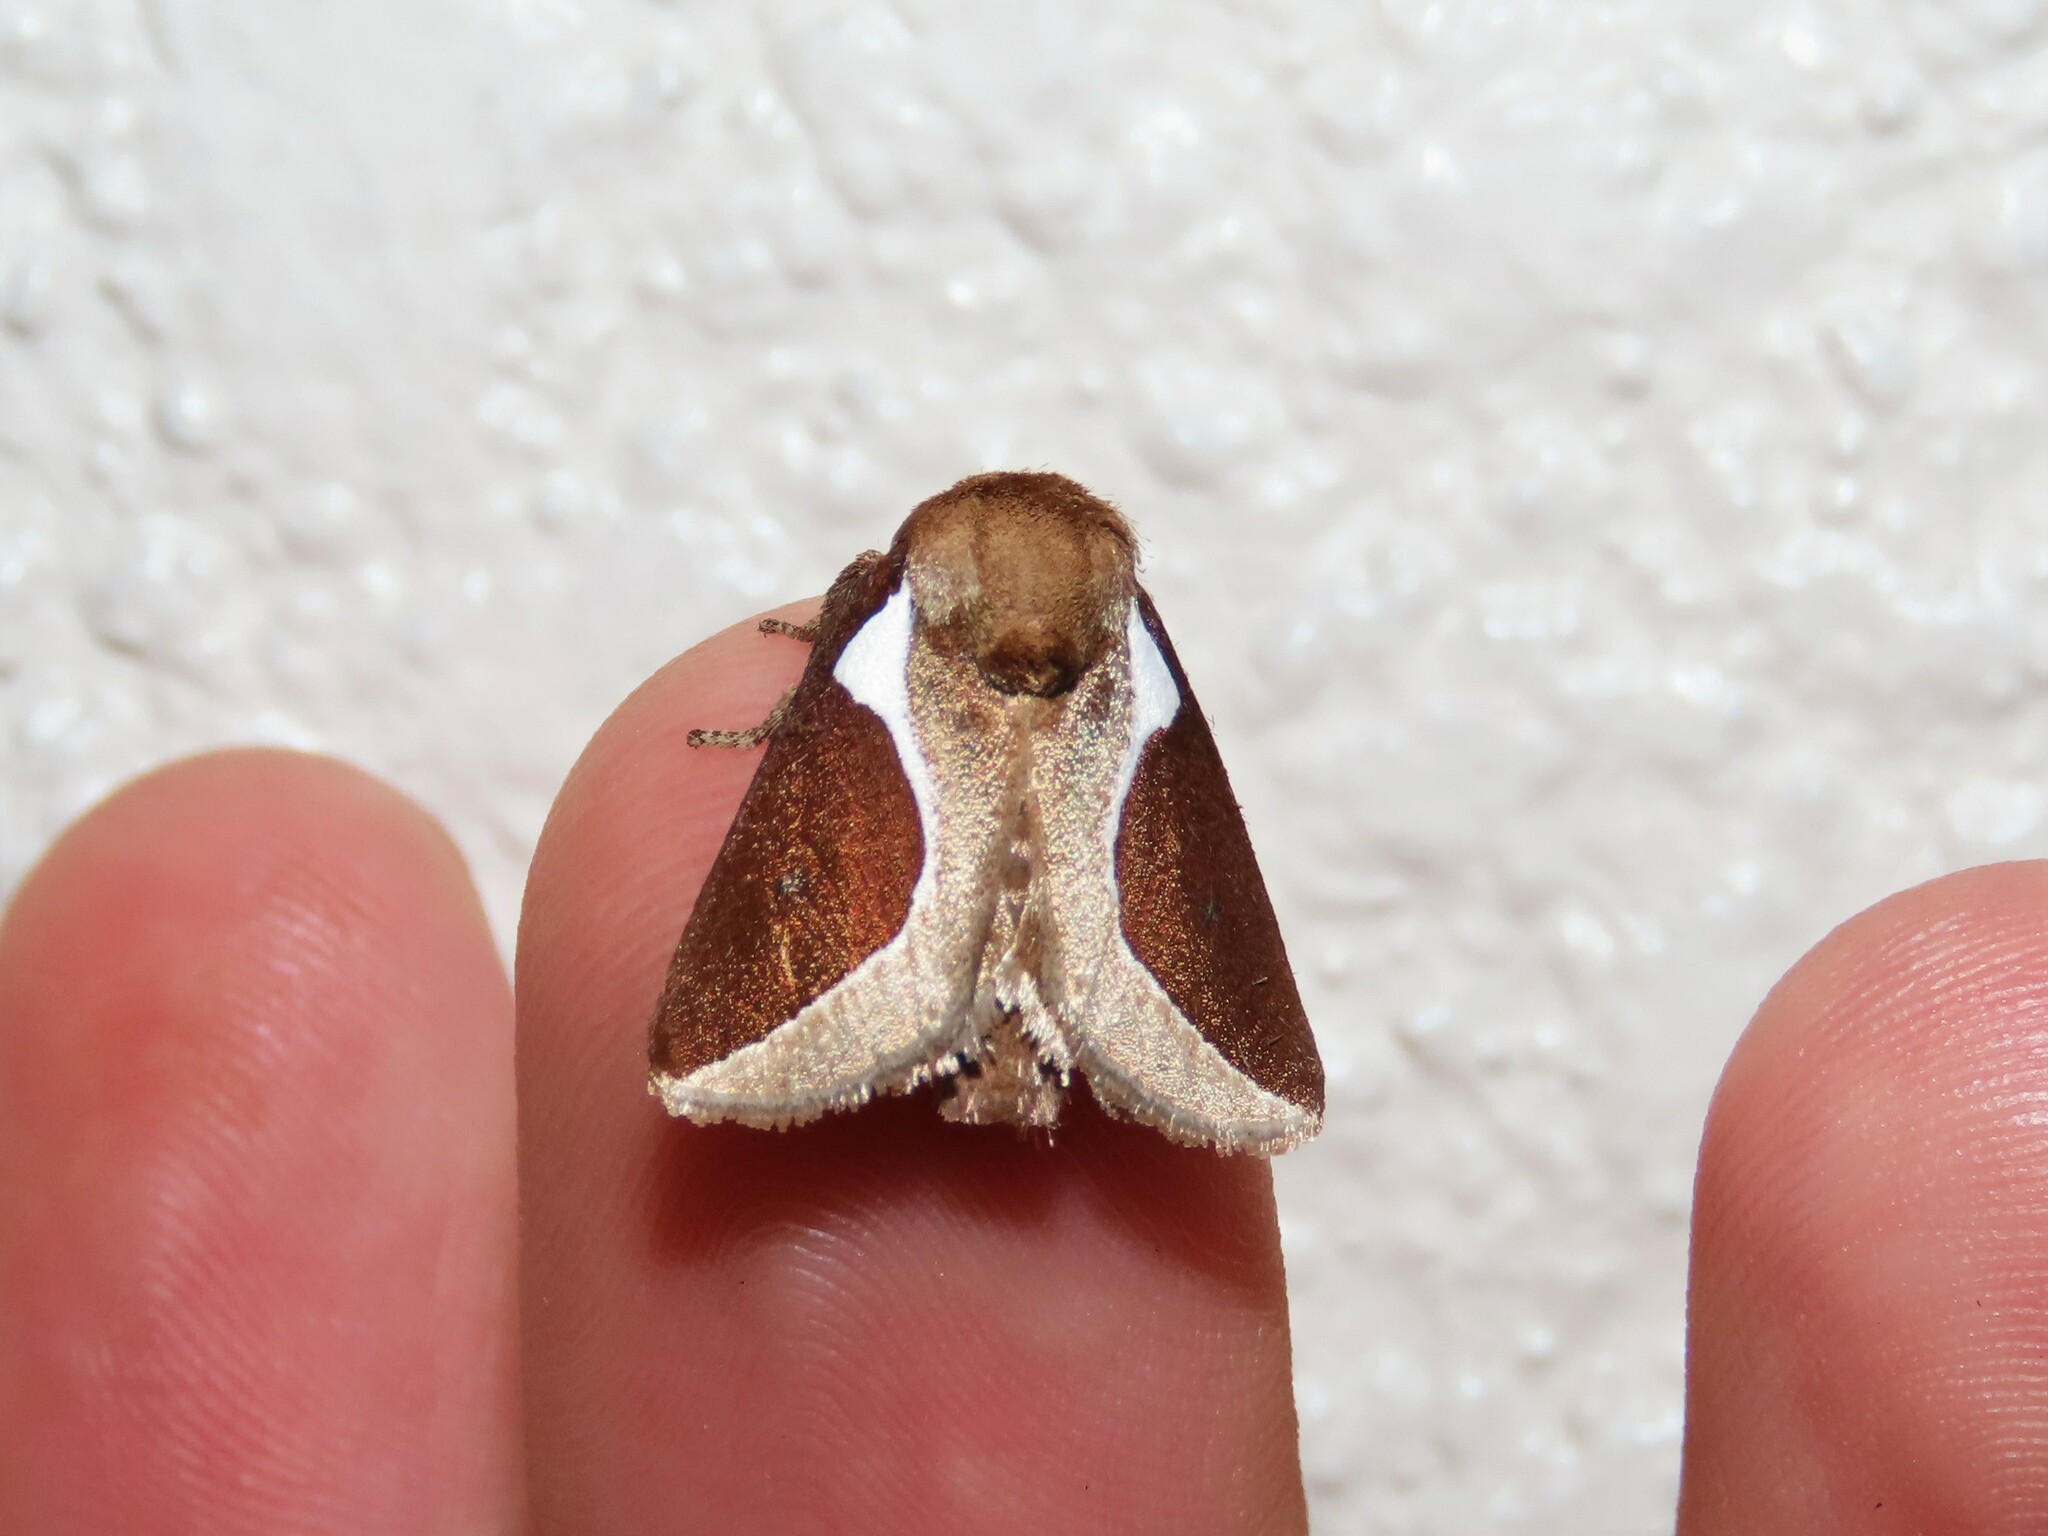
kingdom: Animalia
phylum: Arthropoda
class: Insecta
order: Lepidoptera
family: Limacodidae
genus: Prolimacodes
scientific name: Prolimacodes badia
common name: Skiff moth
